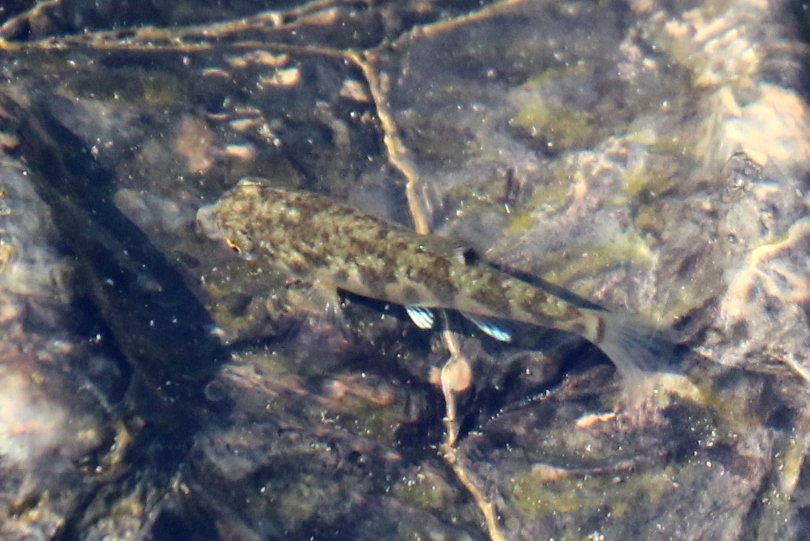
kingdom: Animalia
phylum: Chordata
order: Cyprinodontiformes
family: Cyprinodontidae
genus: Cyprinodon
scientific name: Cyprinodon variegatus
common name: Sheepshead minnow
